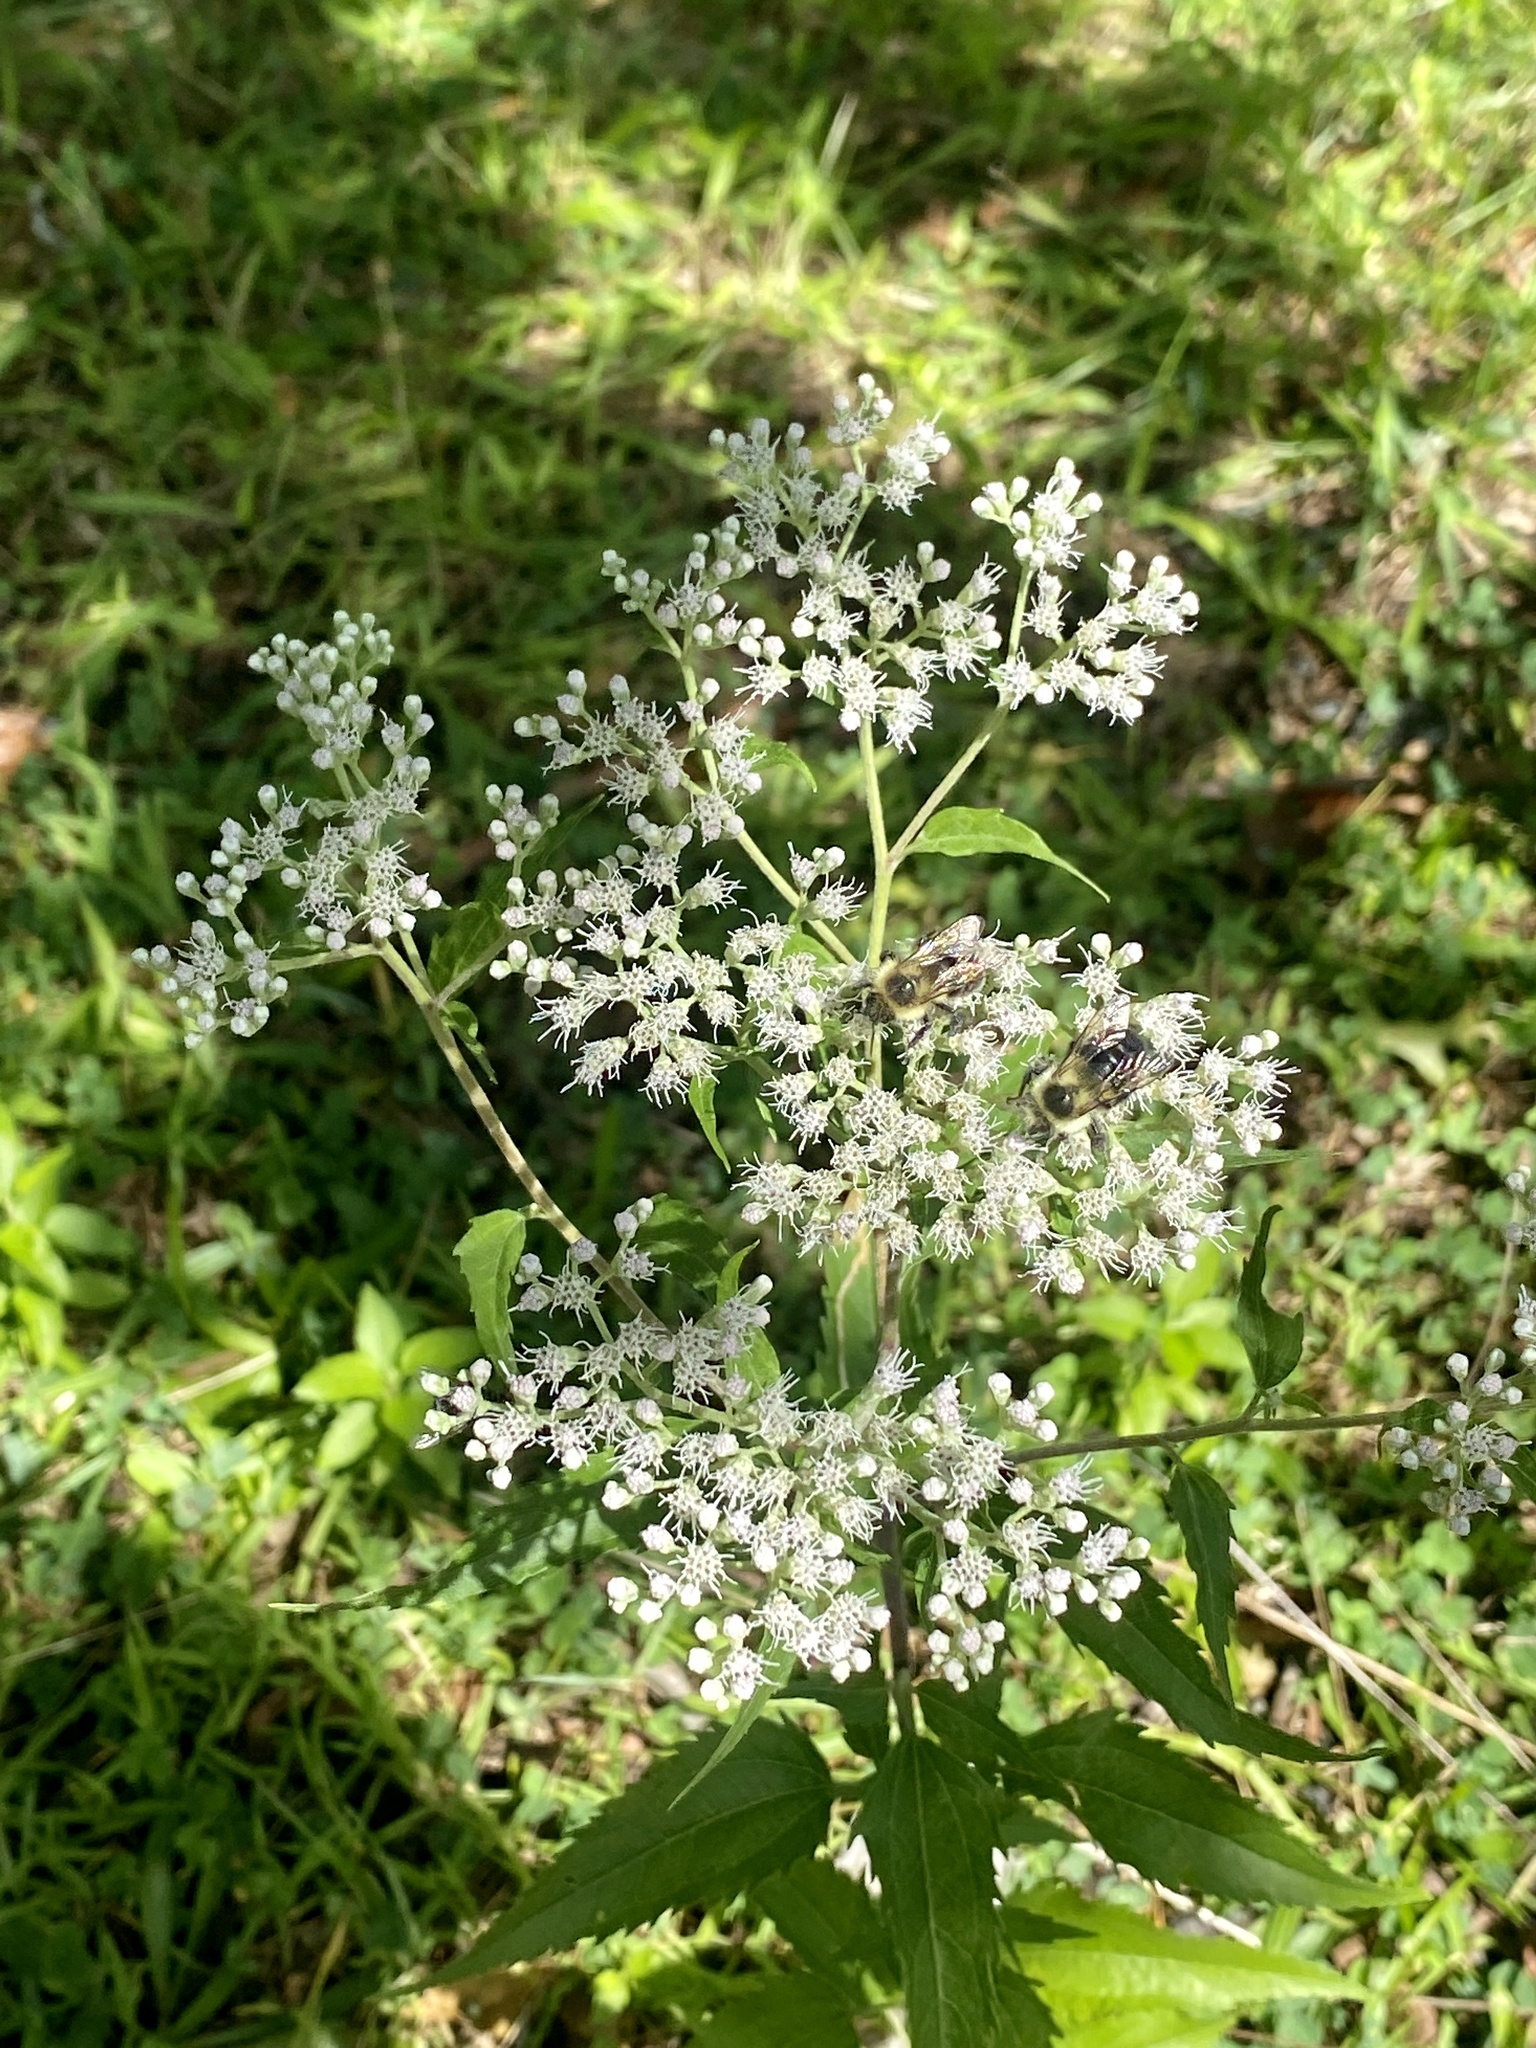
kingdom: Plantae
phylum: Tracheophyta
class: Magnoliopsida
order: Asterales
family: Asteraceae
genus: Eupatorium
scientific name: Eupatorium serotinum
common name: Late boneset
